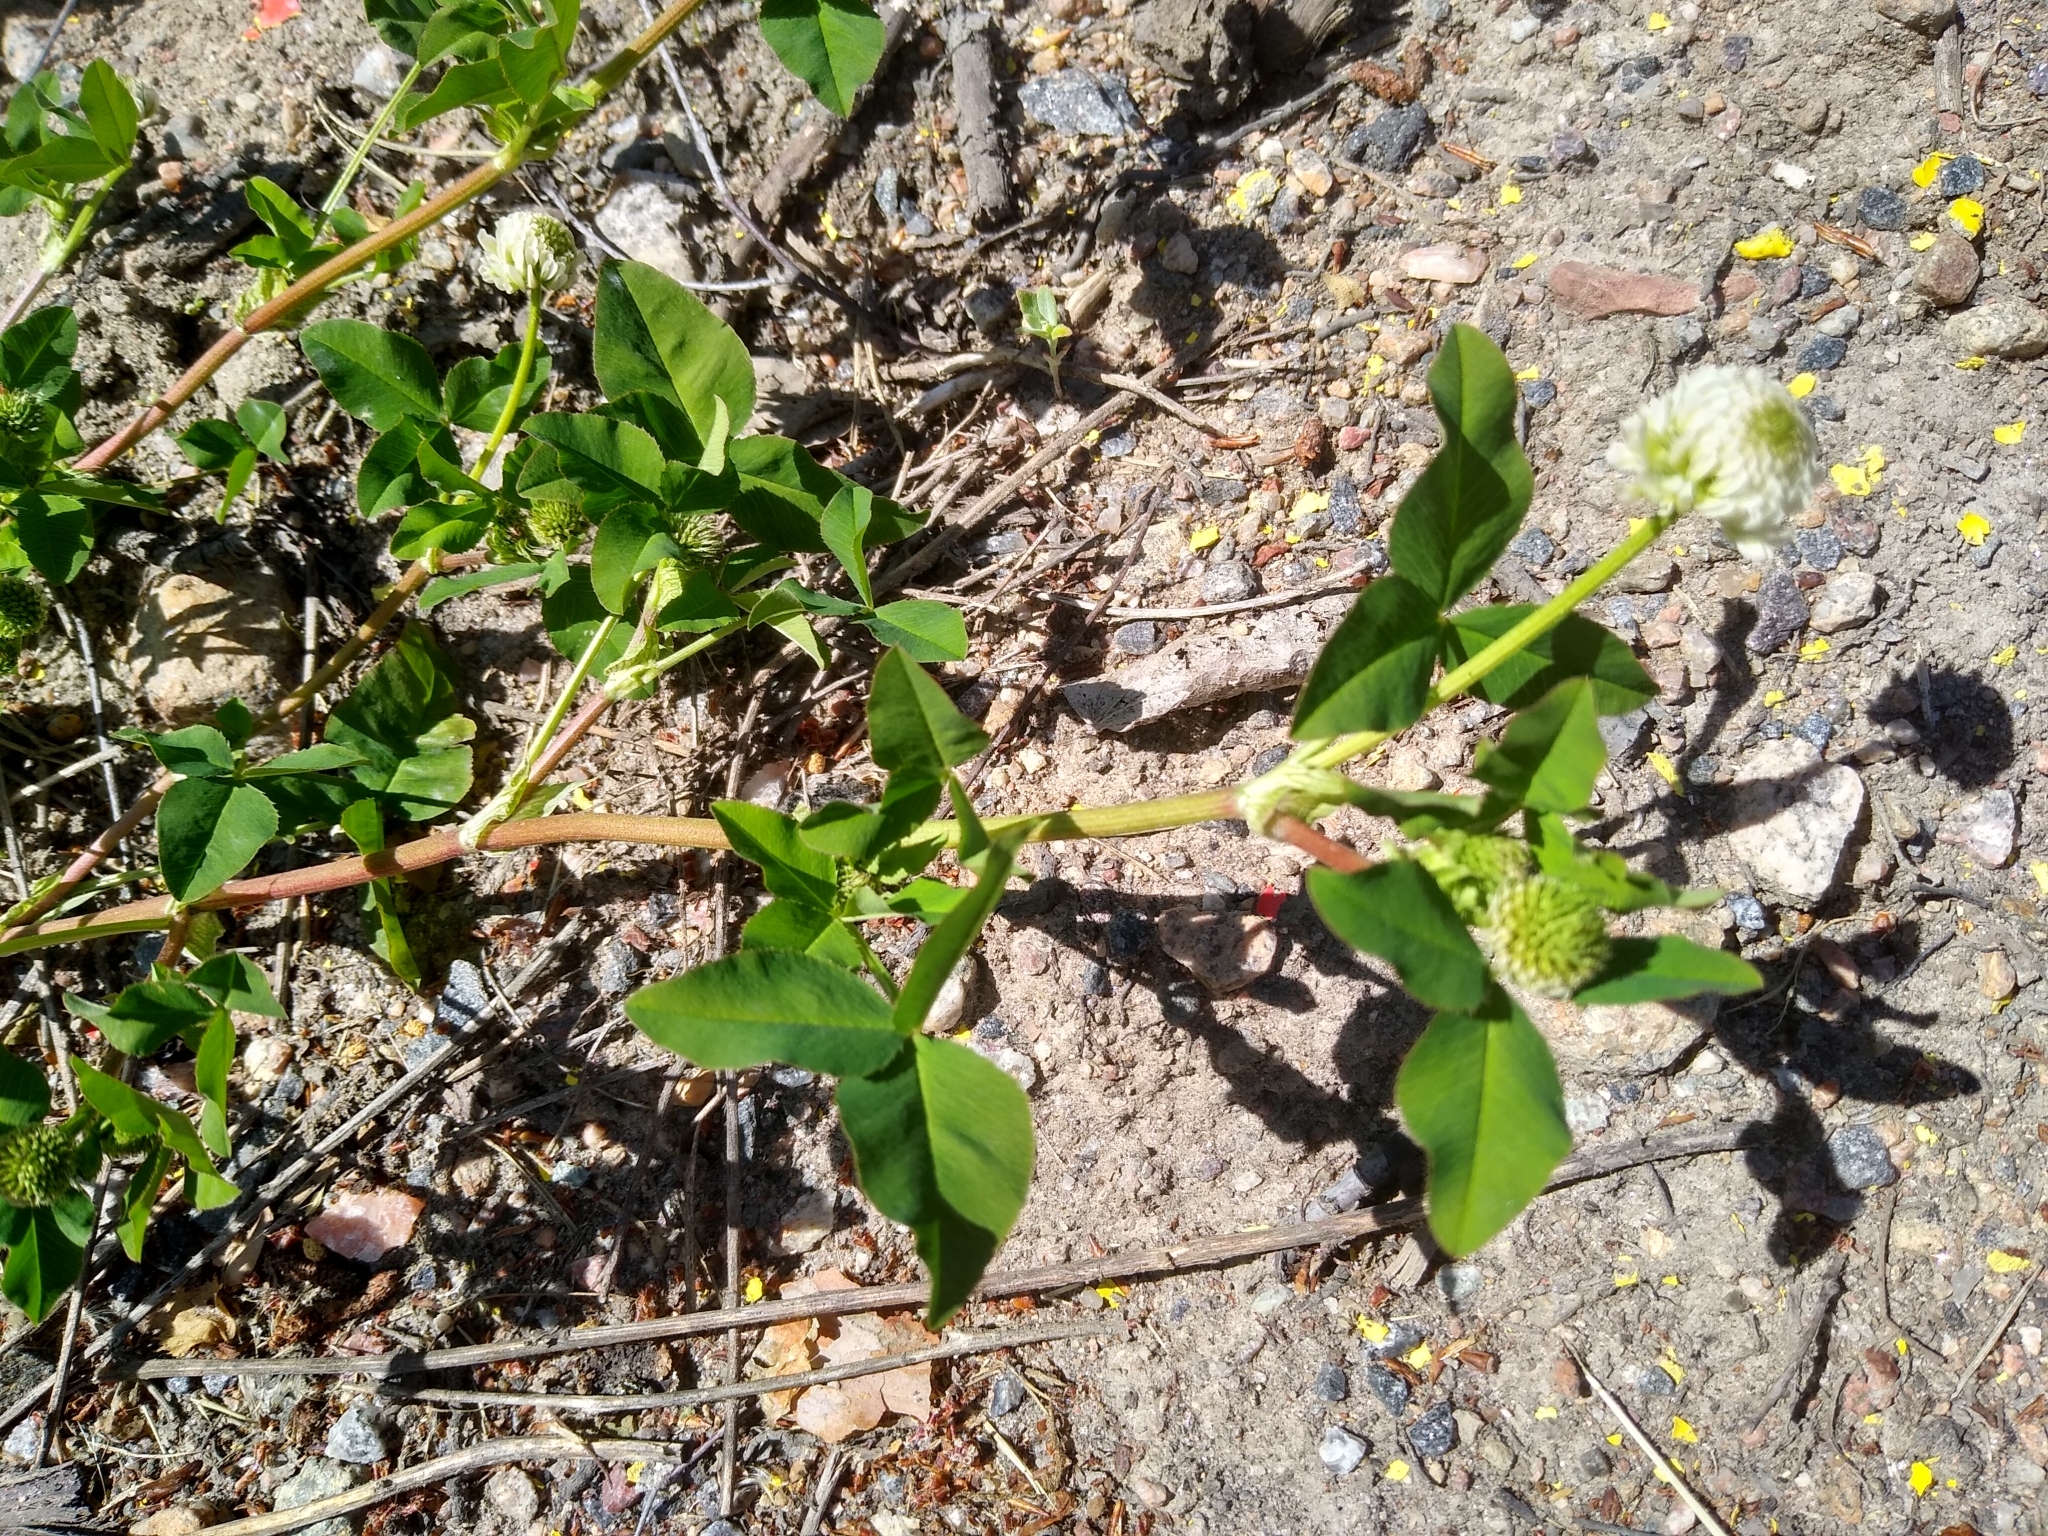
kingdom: Plantae
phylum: Tracheophyta
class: Magnoliopsida
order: Fabales
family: Fabaceae
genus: Trifolium
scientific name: Trifolium repens
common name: White clover
